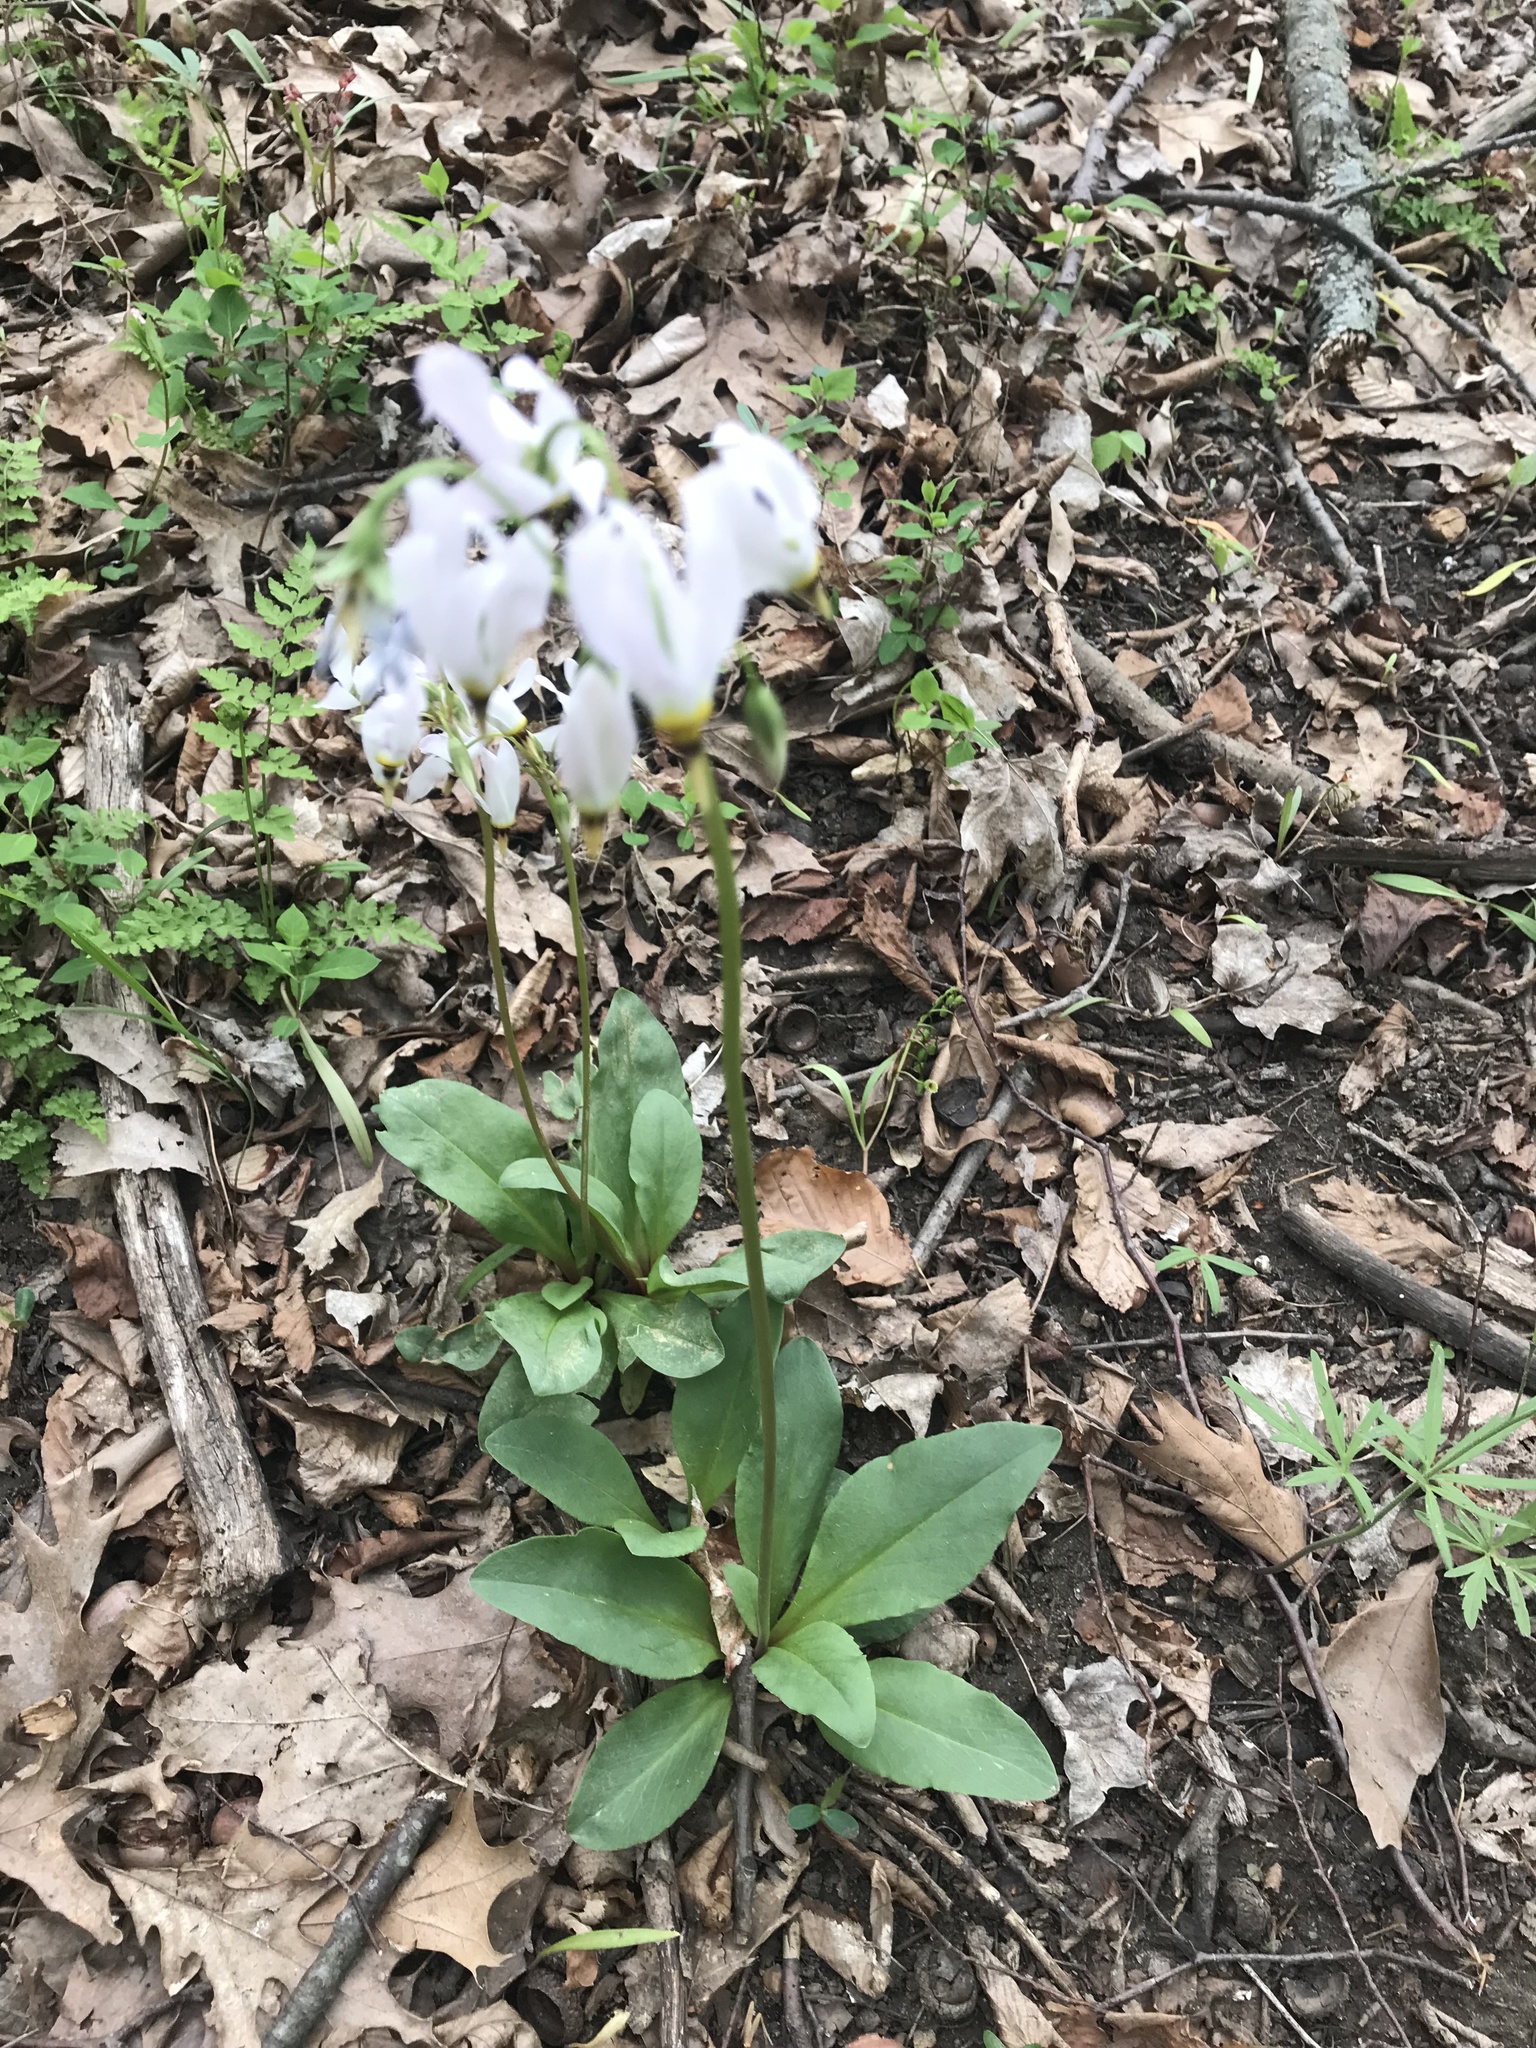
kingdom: Plantae
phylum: Tracheophyta
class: Magnoliopsida
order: Ericales
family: Primulaceae
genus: Dodecatheon
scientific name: Dodecatheon meadia
